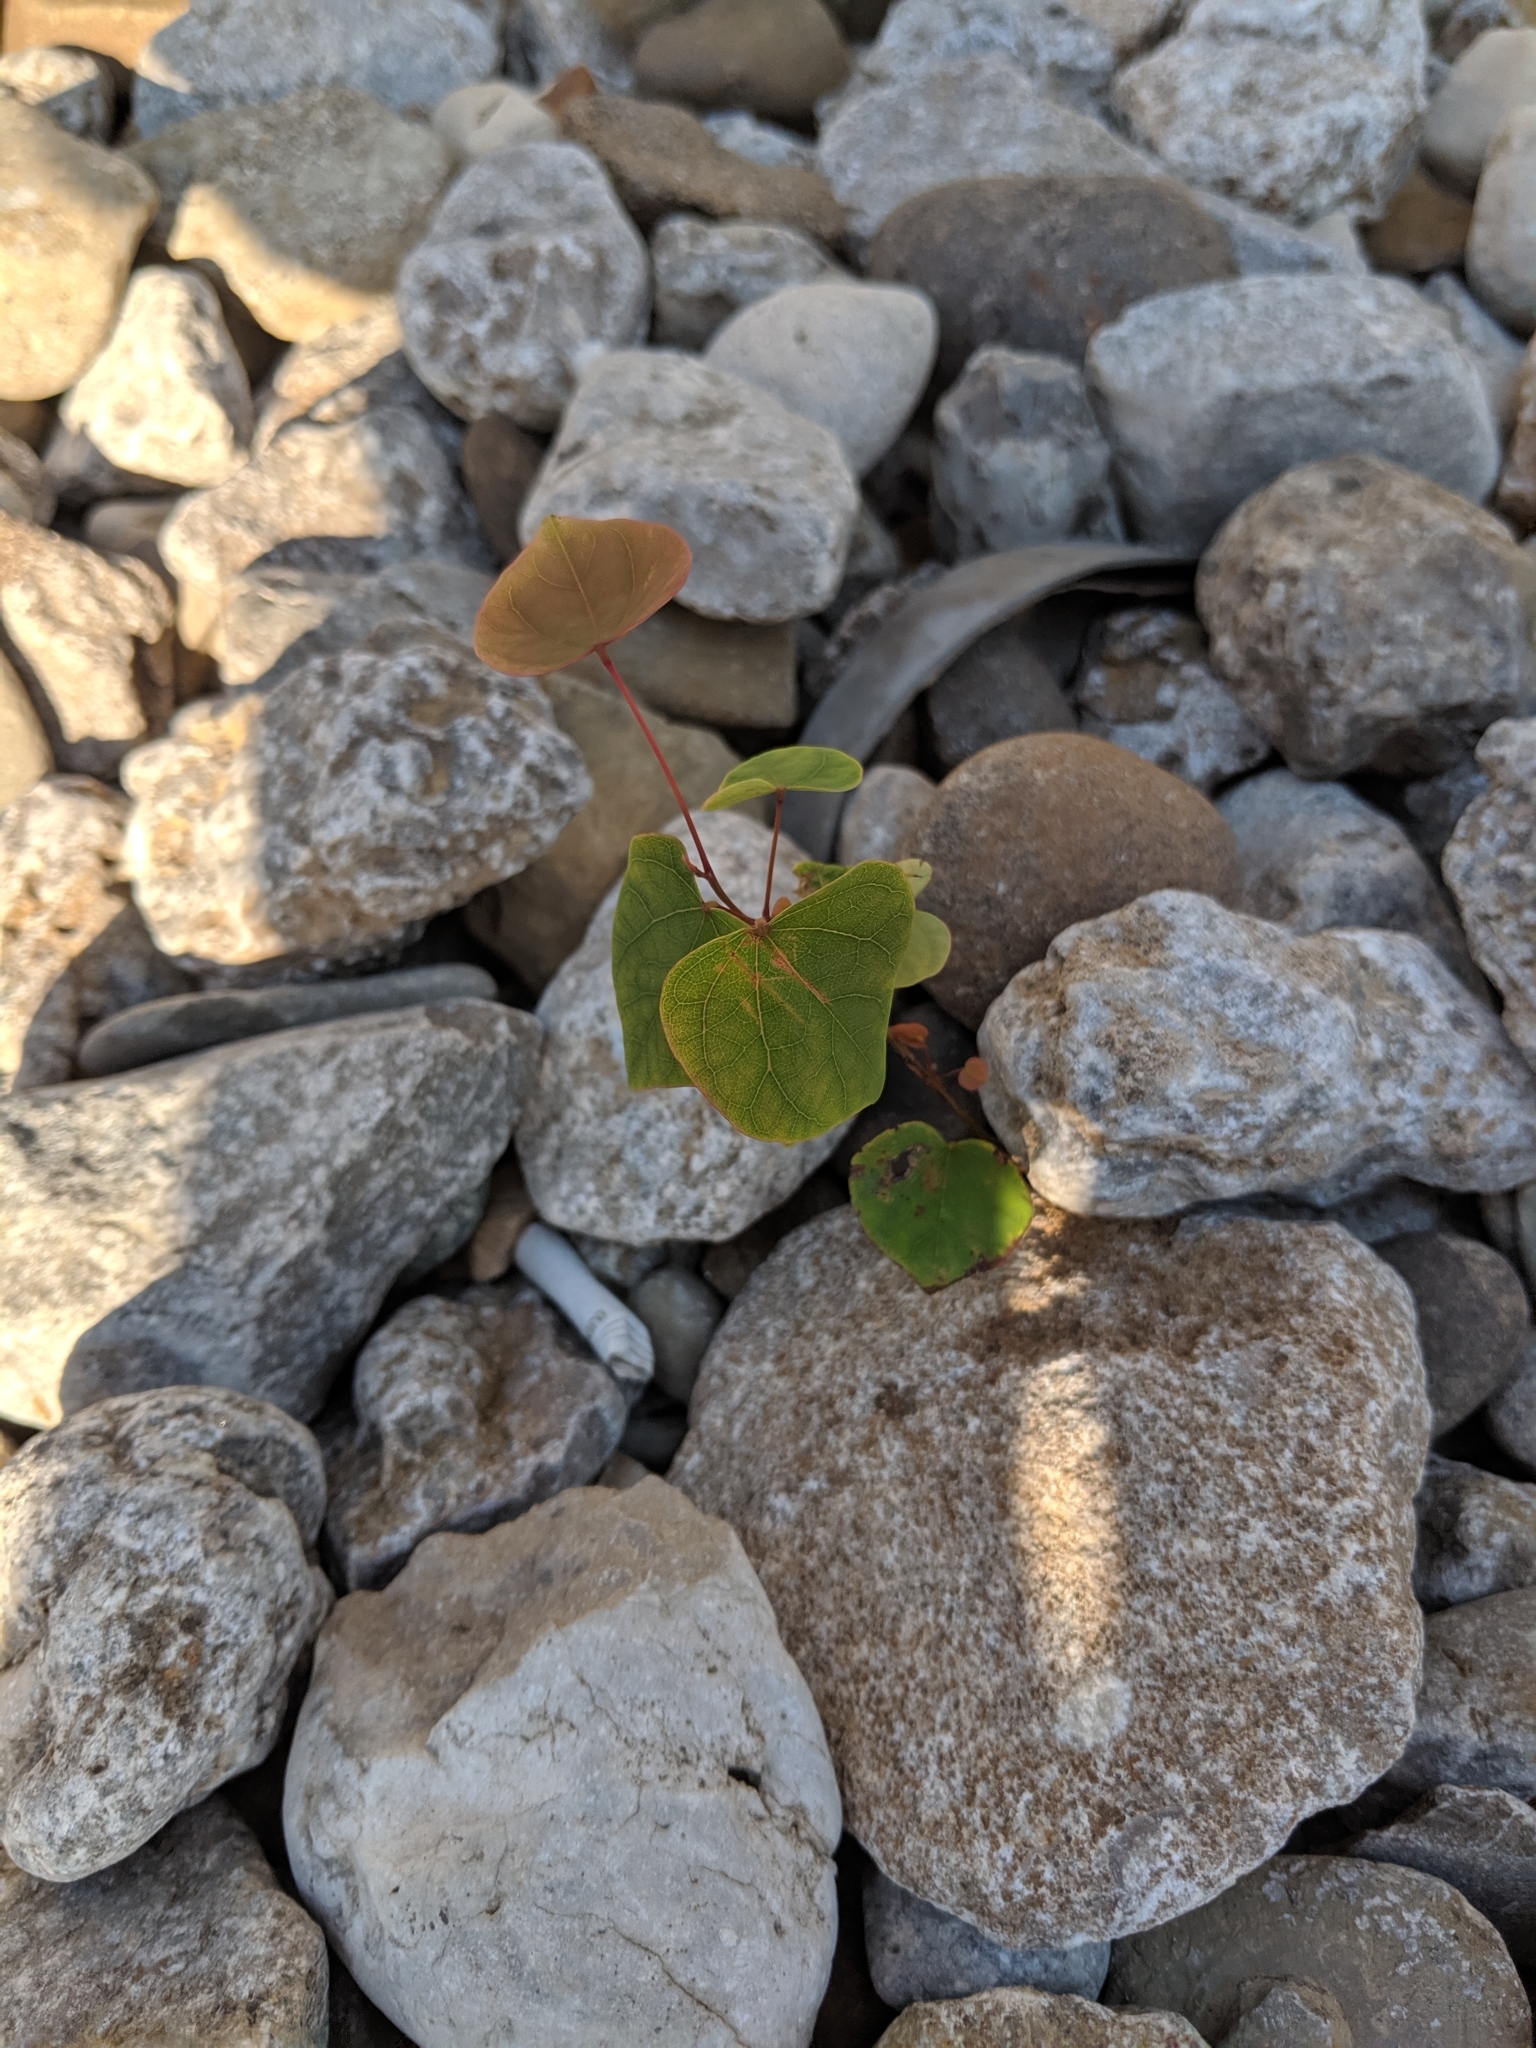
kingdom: Plantae
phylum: Tracheophyta
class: Magnoliopsida
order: Fabales
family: Fabaceae
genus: Cercis
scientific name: Cercis canadensis
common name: Eastern redbud
